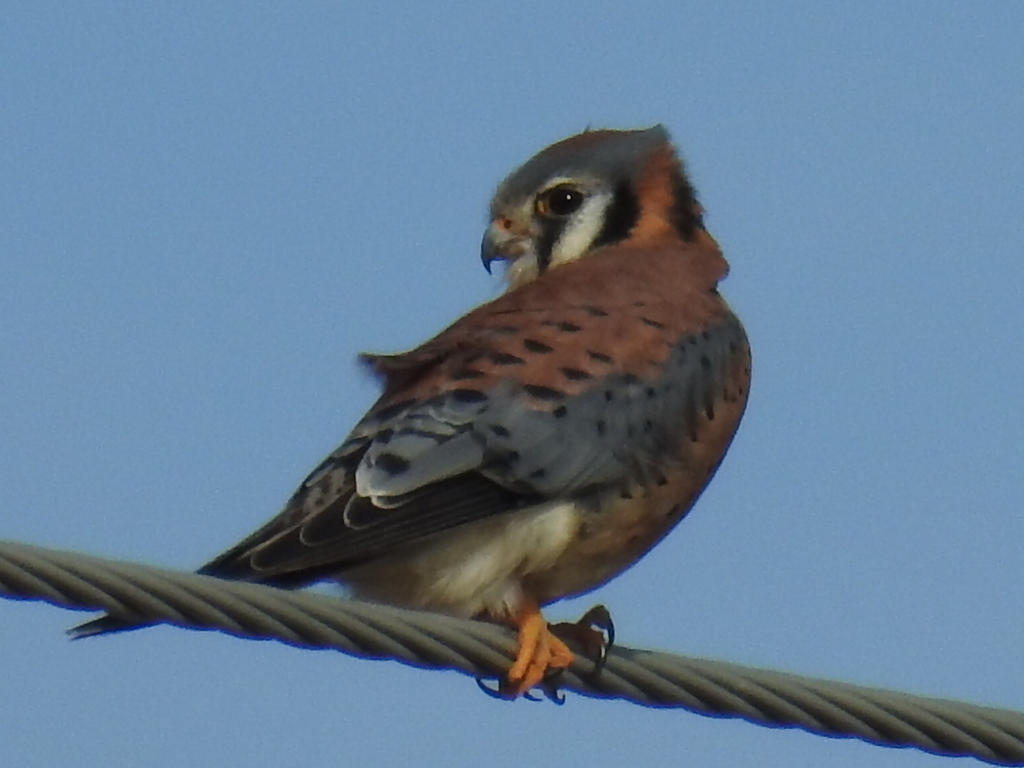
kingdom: Animalia
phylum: Chordata
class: Aves
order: Falconiformes
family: Falconidae
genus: Falco
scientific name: Falco sparverius
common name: American kestrel
